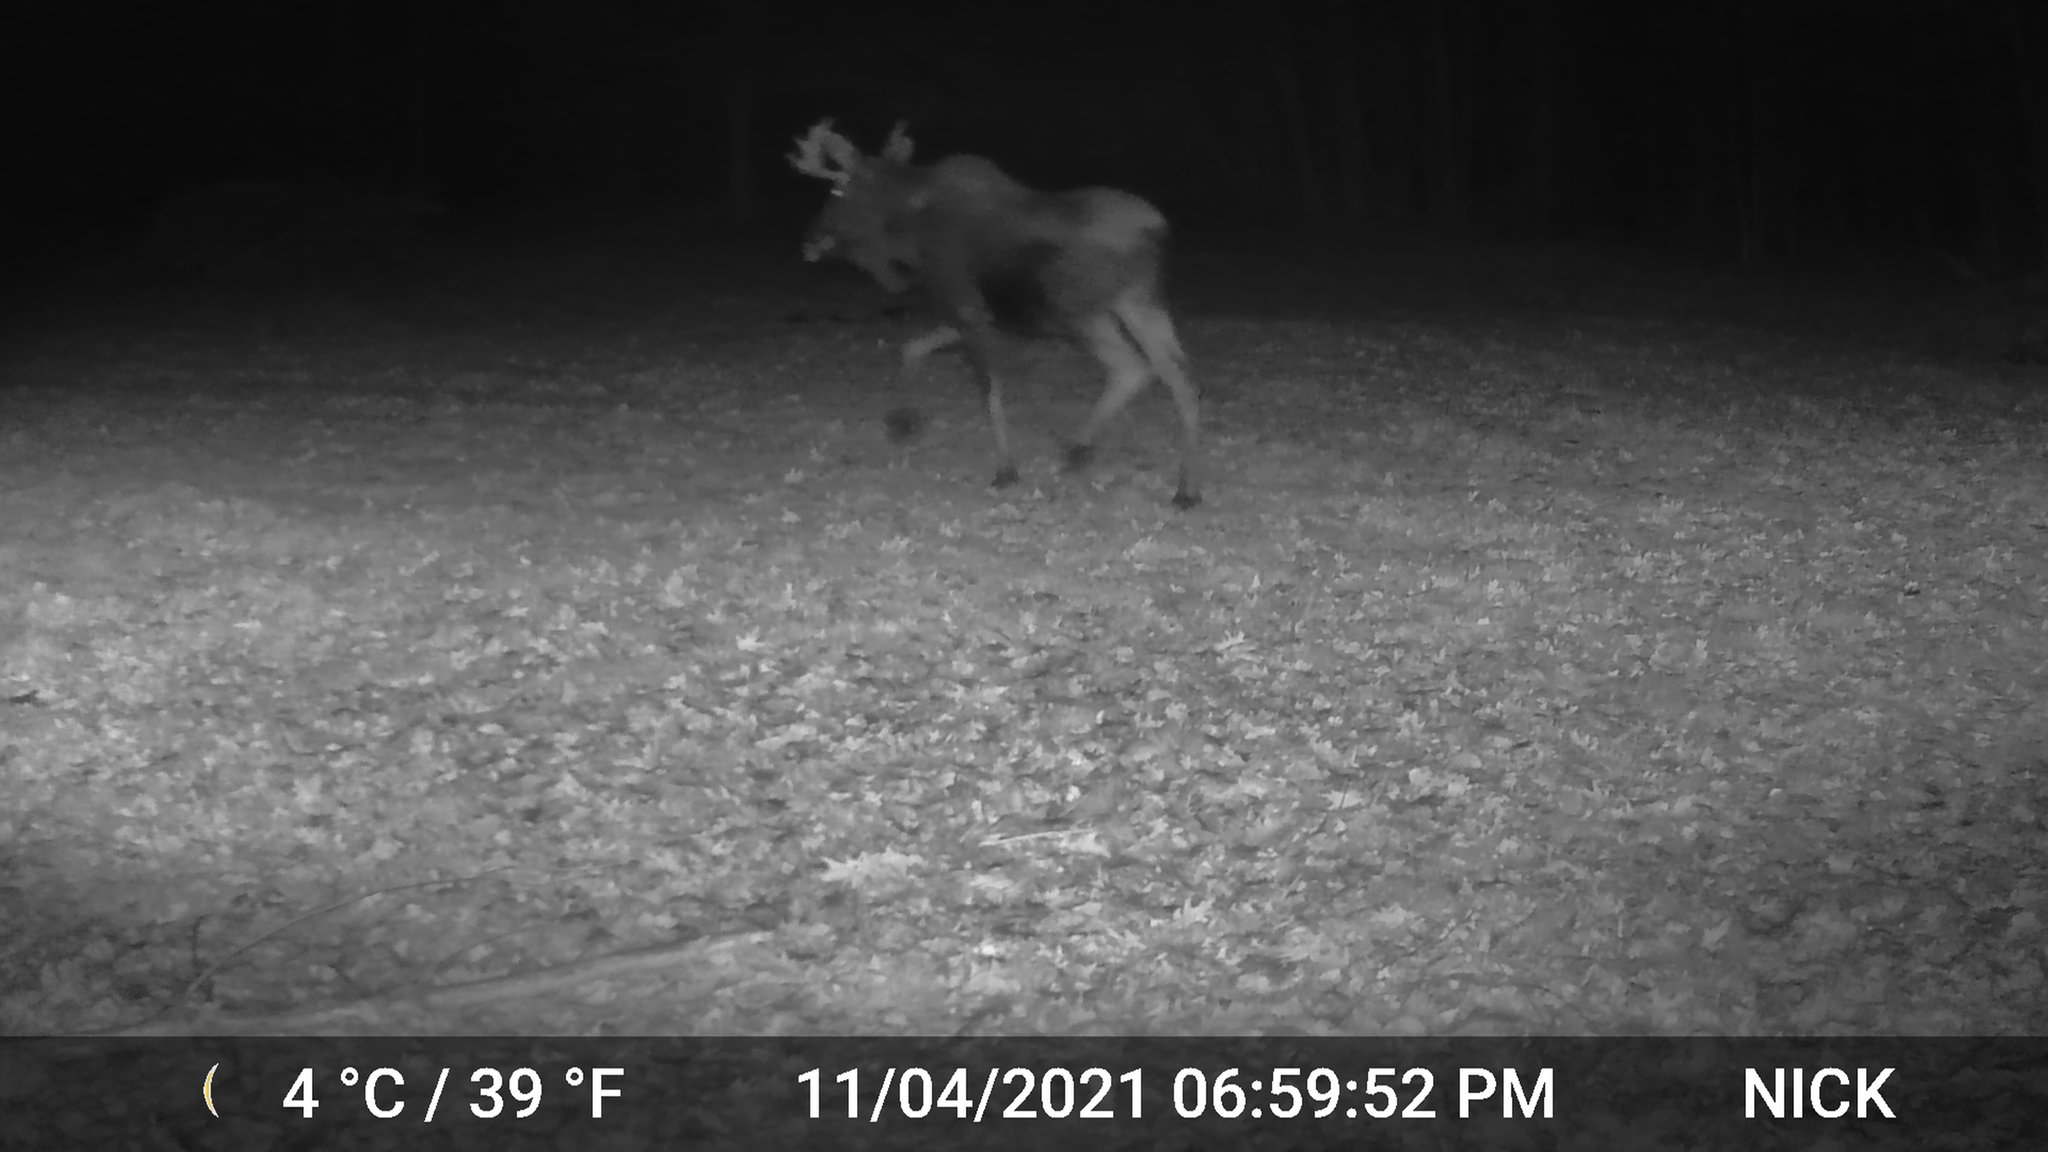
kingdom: Animalia
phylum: Chordata
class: Mammalia
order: Artiodactyla
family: Cervidae
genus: Alces
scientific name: Alces alces
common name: Moose
